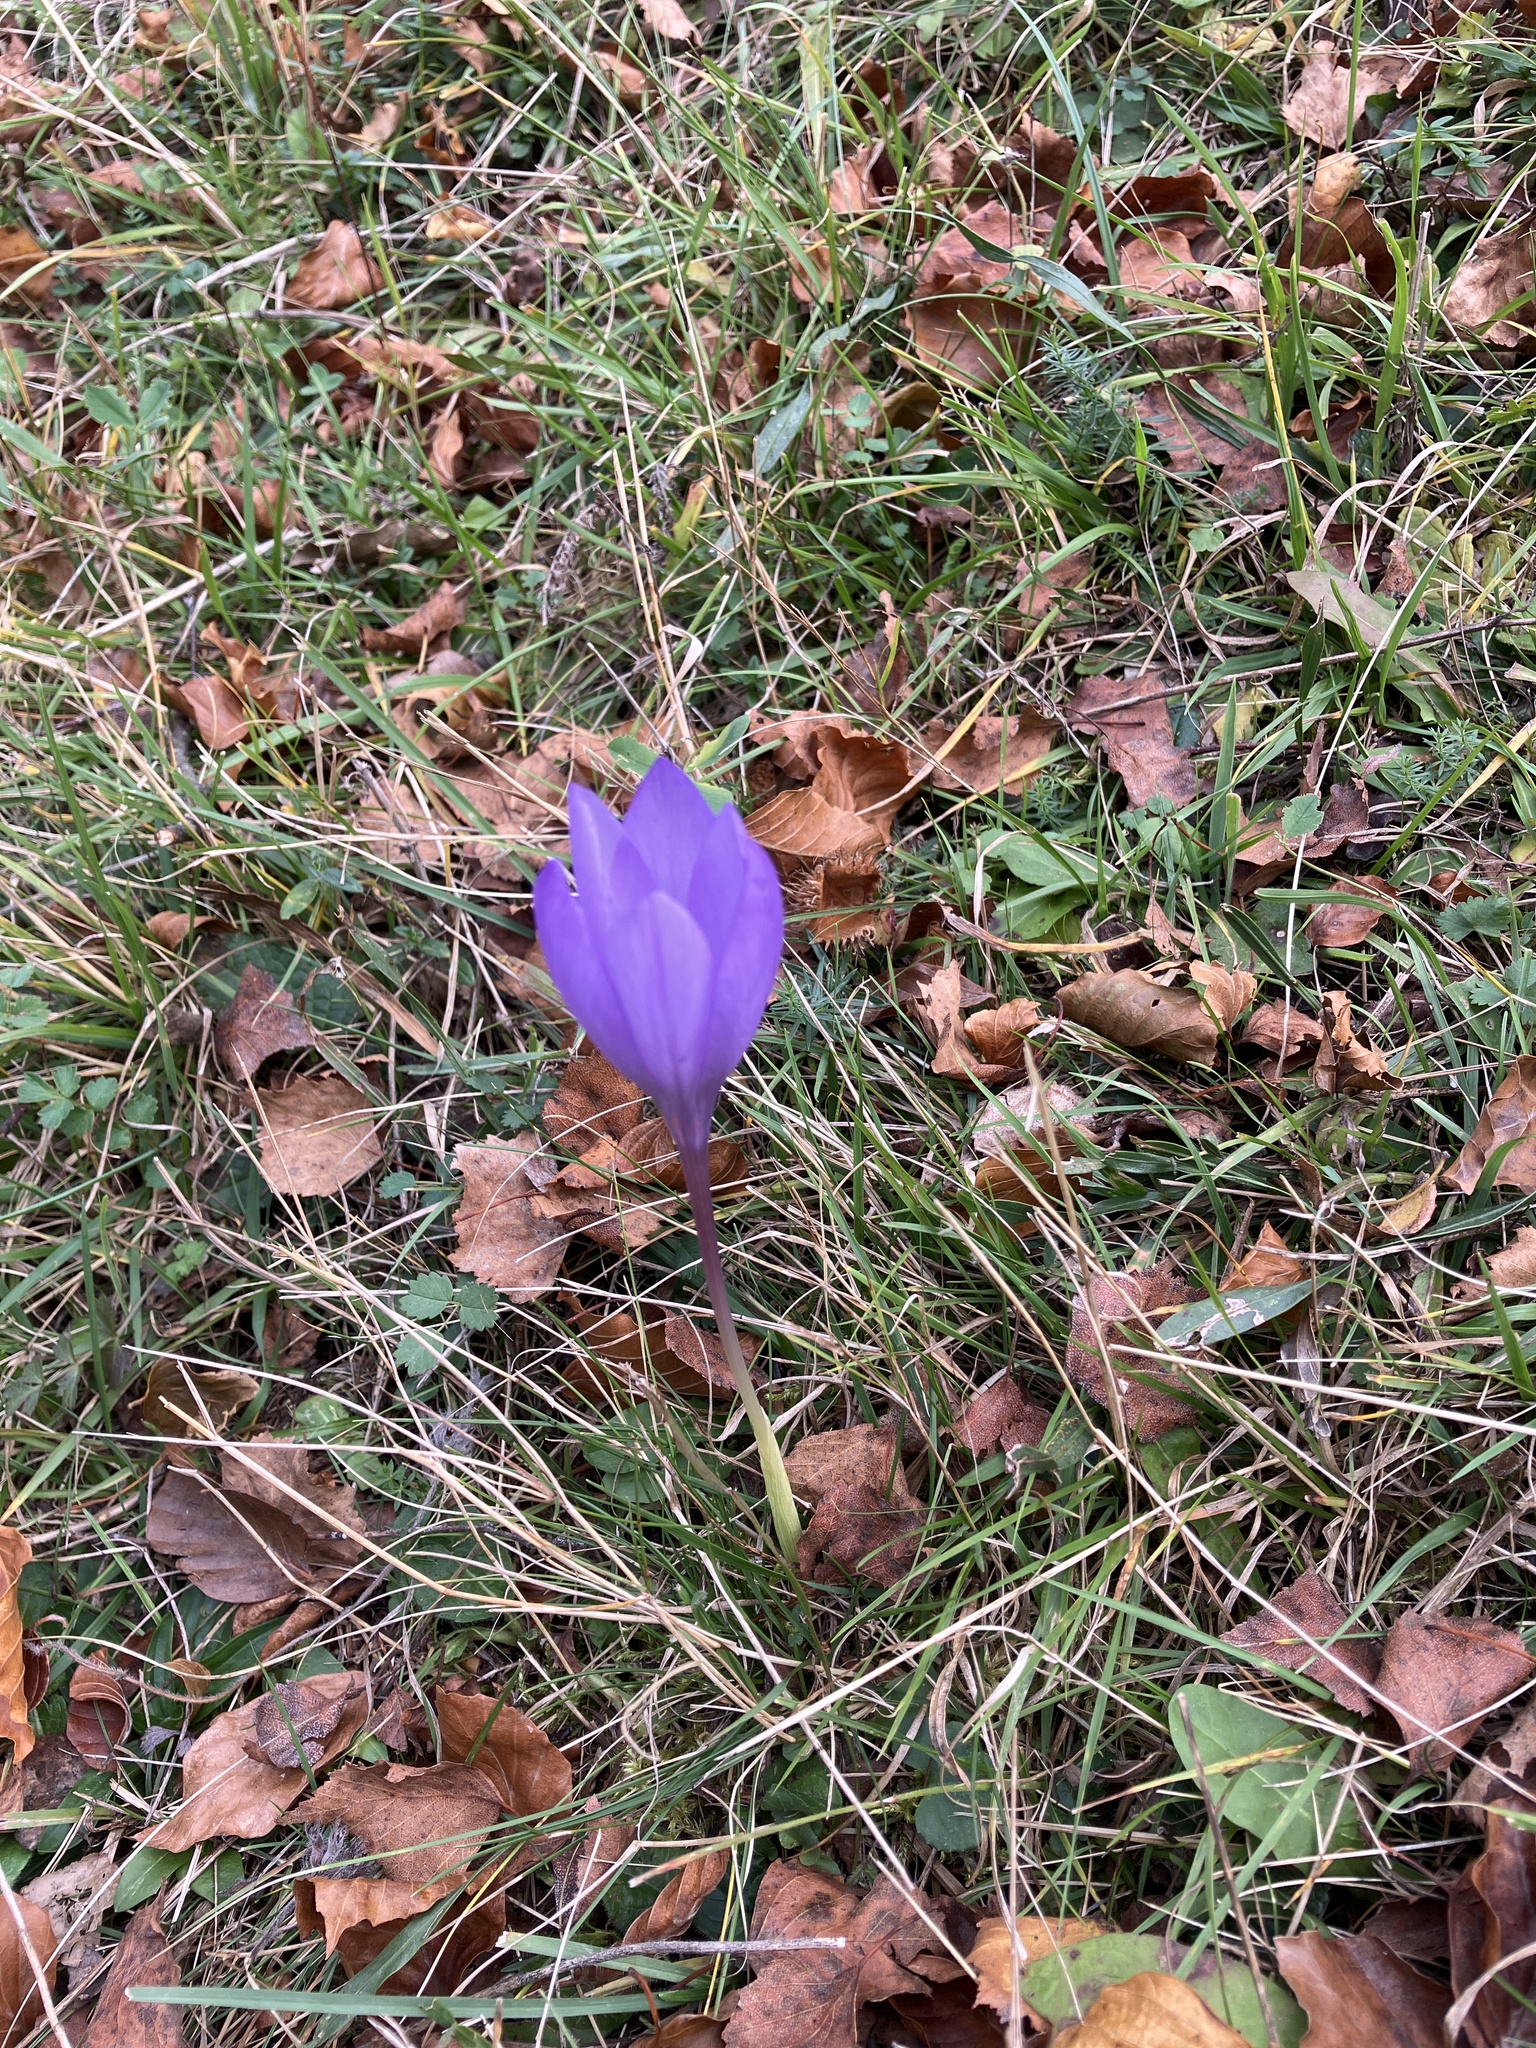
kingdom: Plantae
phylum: Tracheophyta
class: Liliopsida
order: Asparagales
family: Iridaceae
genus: Crocus
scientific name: Crocus nudiflorus
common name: Autumn crocus
